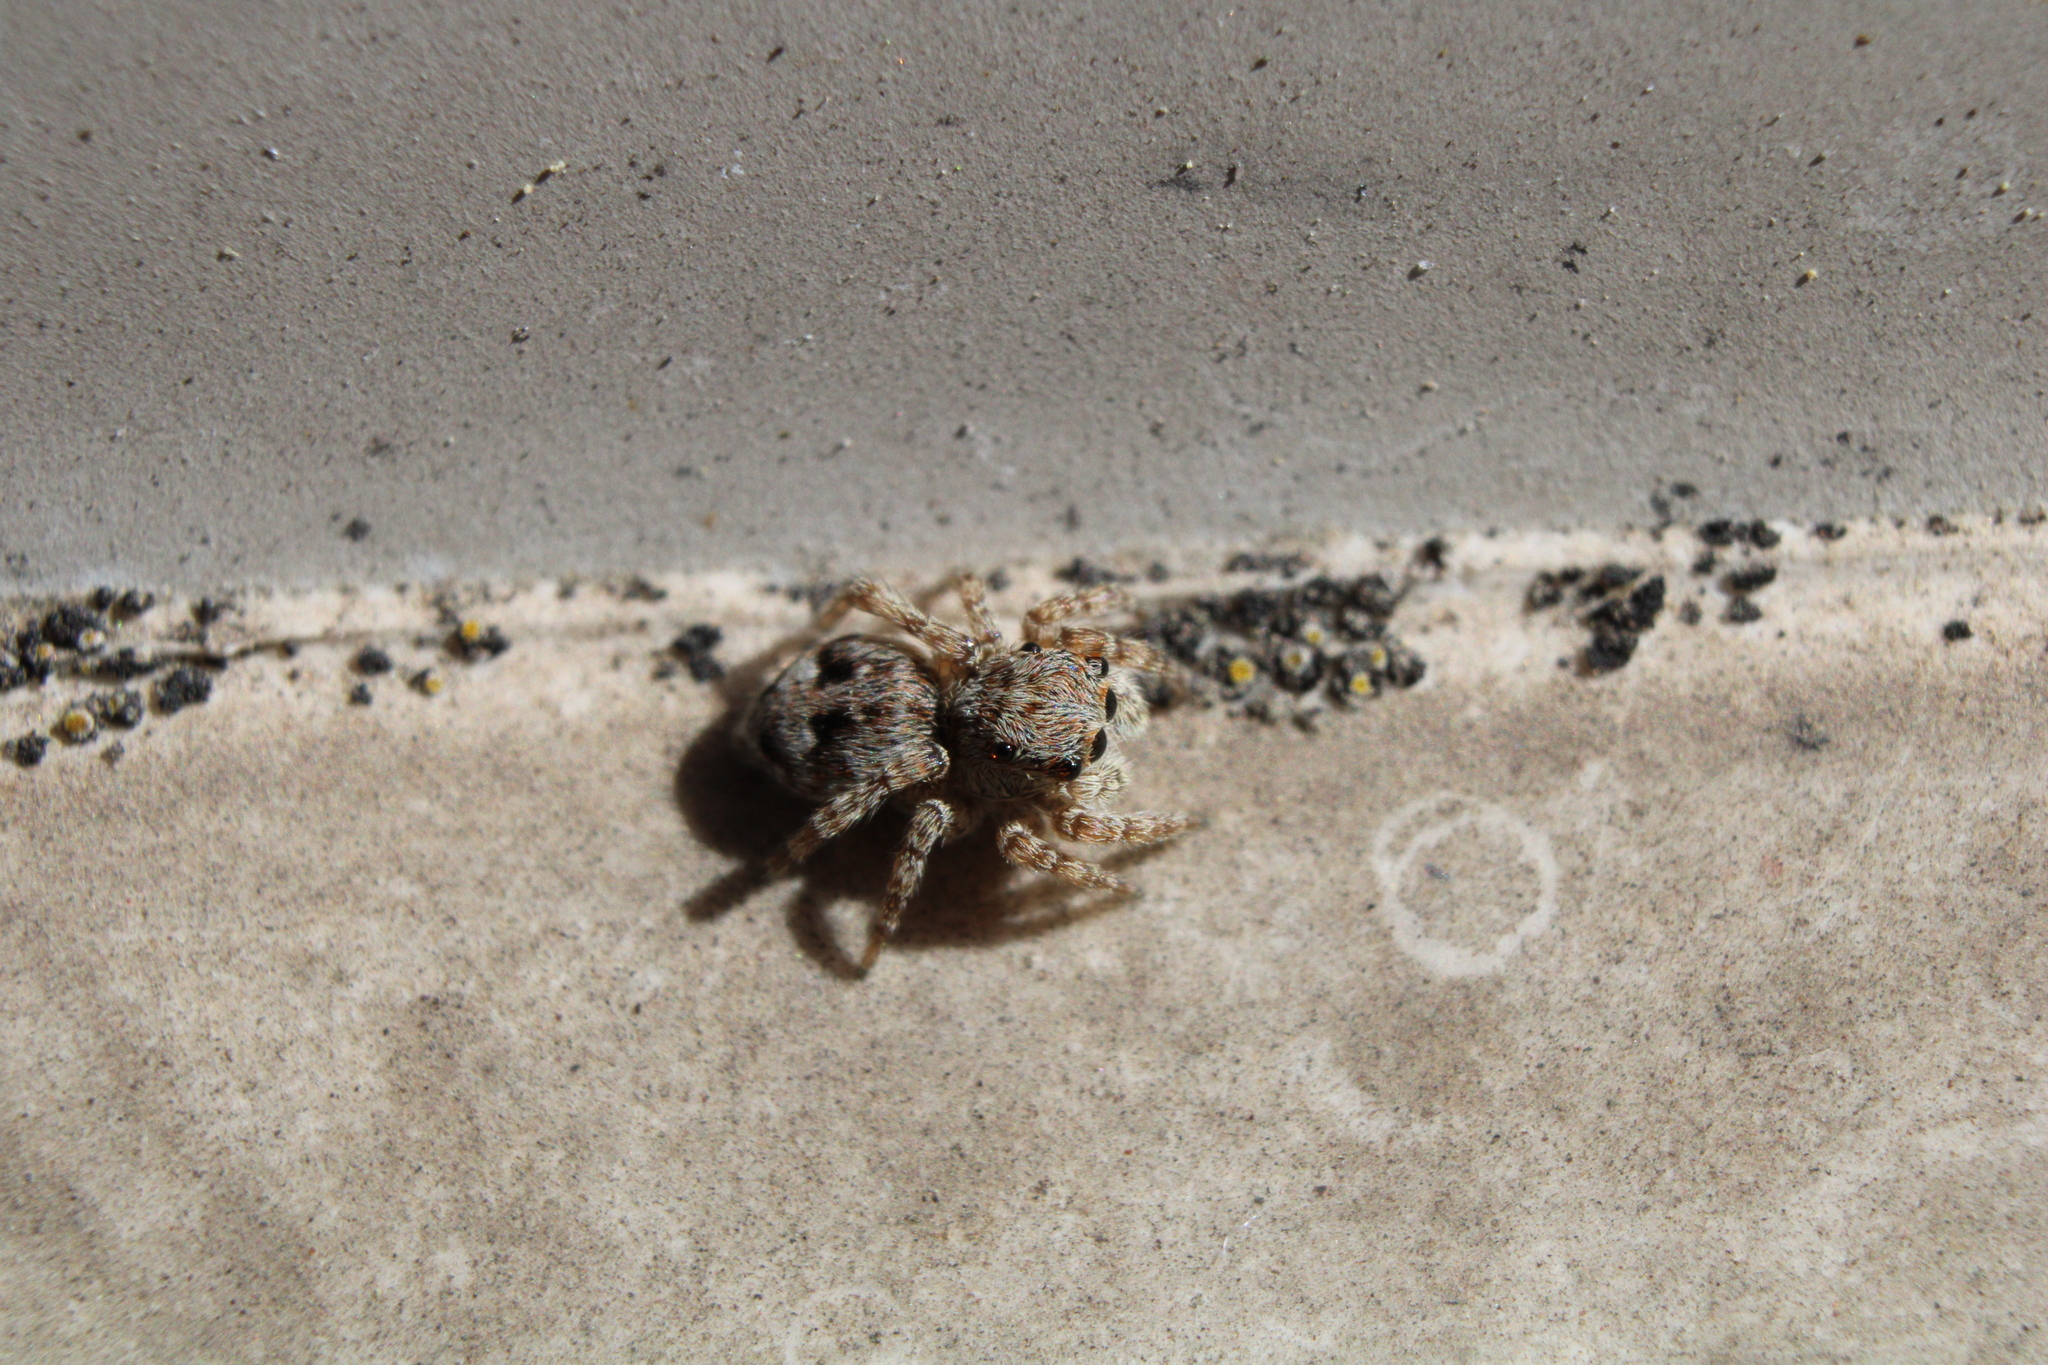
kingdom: Animalia
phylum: Arthropoda
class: Arachnida
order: Araneae
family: Salticidae
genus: Attulus
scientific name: Attulus fasciger
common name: Asiatic wall jumping spider
